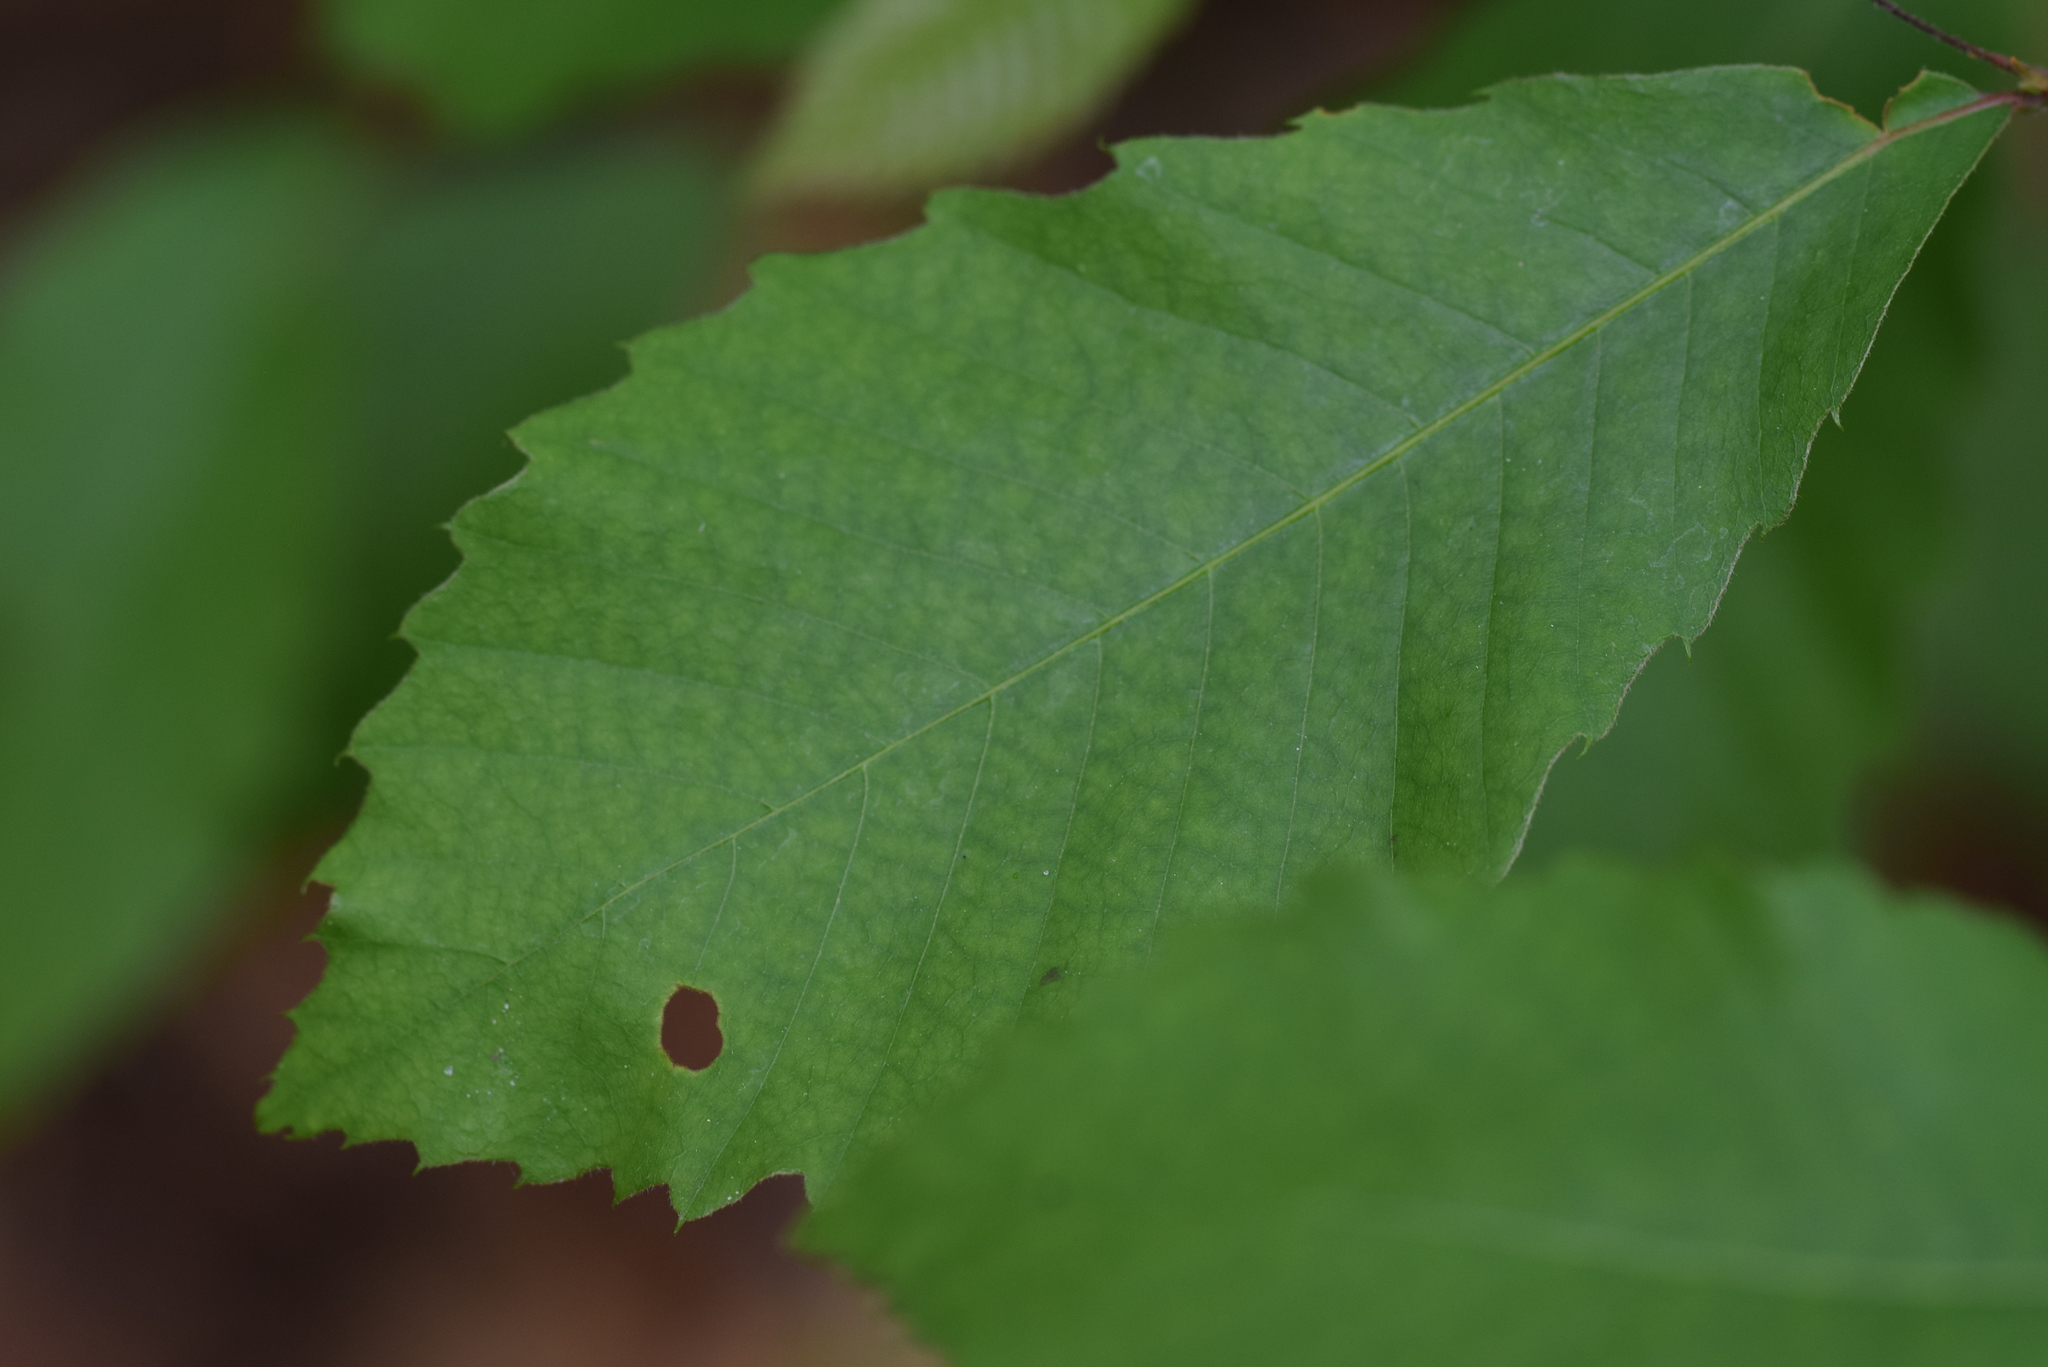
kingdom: Plantae
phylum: Tracheophyta
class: Magnoliopsida
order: Fagales
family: Fagaceae
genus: Castanea
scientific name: Castanea pumila
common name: Chinkapin
